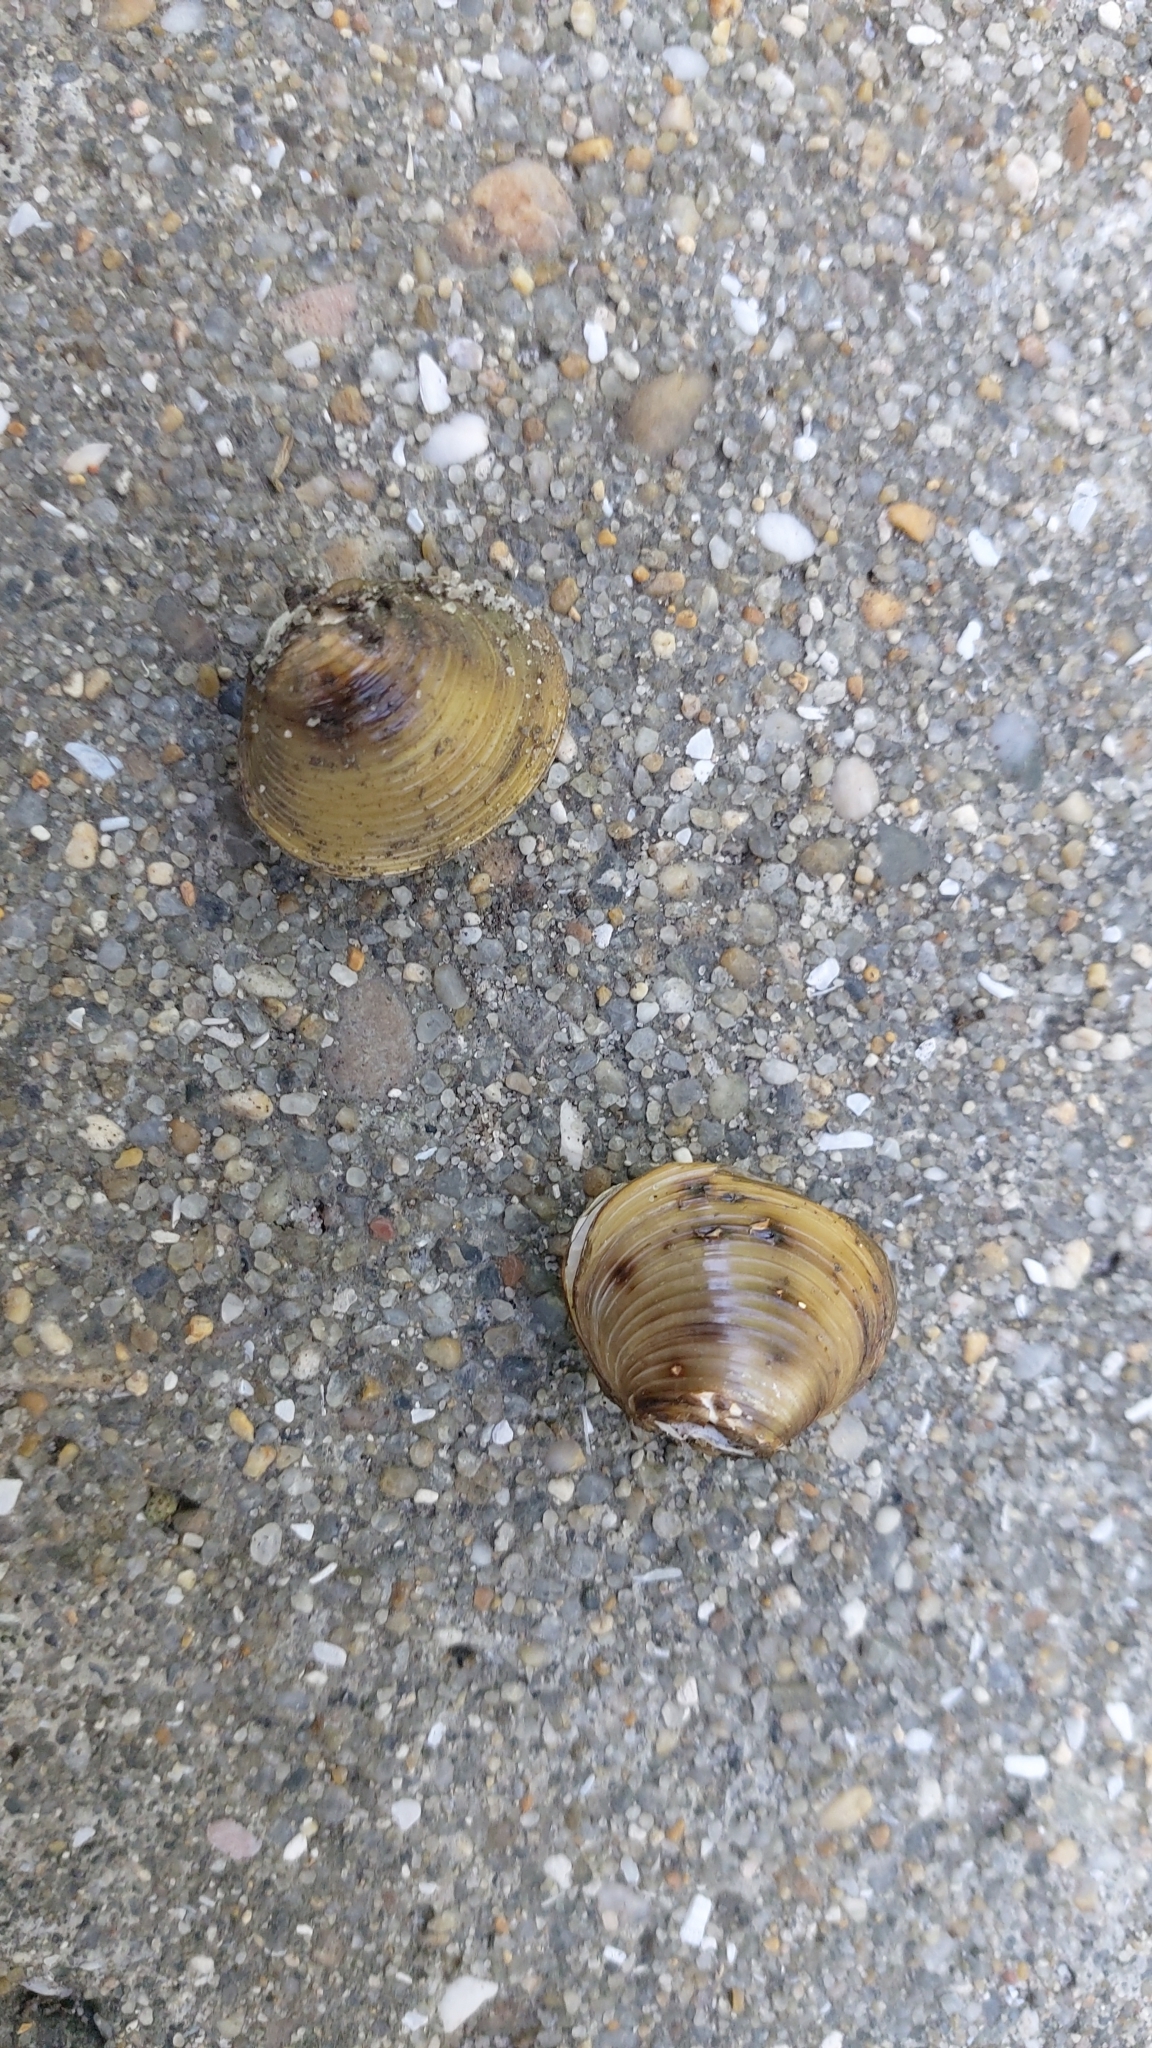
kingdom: Animalia
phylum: Mollusca
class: Bivalvia
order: Venerida
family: Cyrenidae
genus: Corbicula
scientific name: Corbicula fluminea
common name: Asian clam
